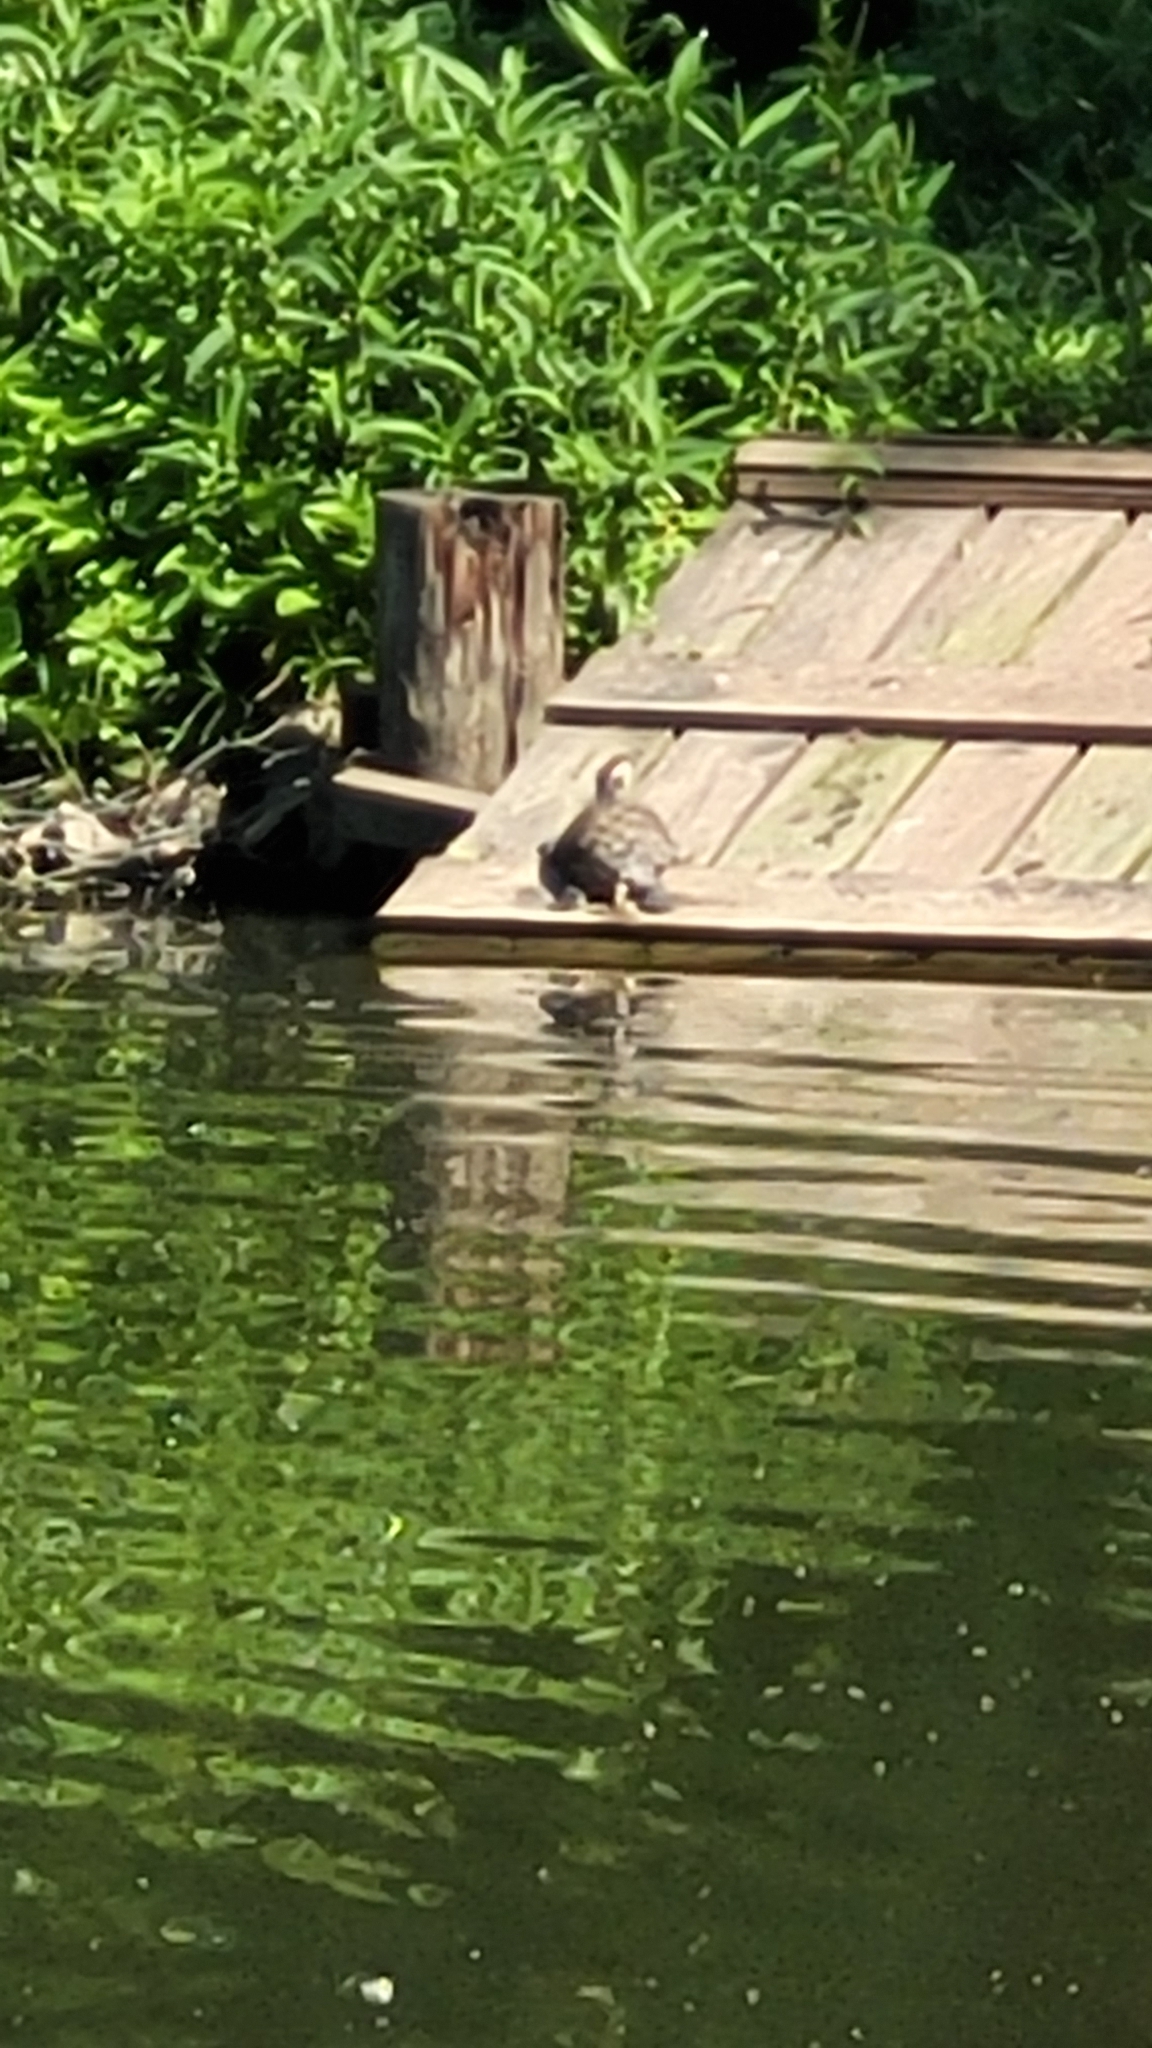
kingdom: Animalia
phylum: Chordata
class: Testudines
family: Emydidae
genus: Trachemys
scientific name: Trachemys scripta
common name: Slider
